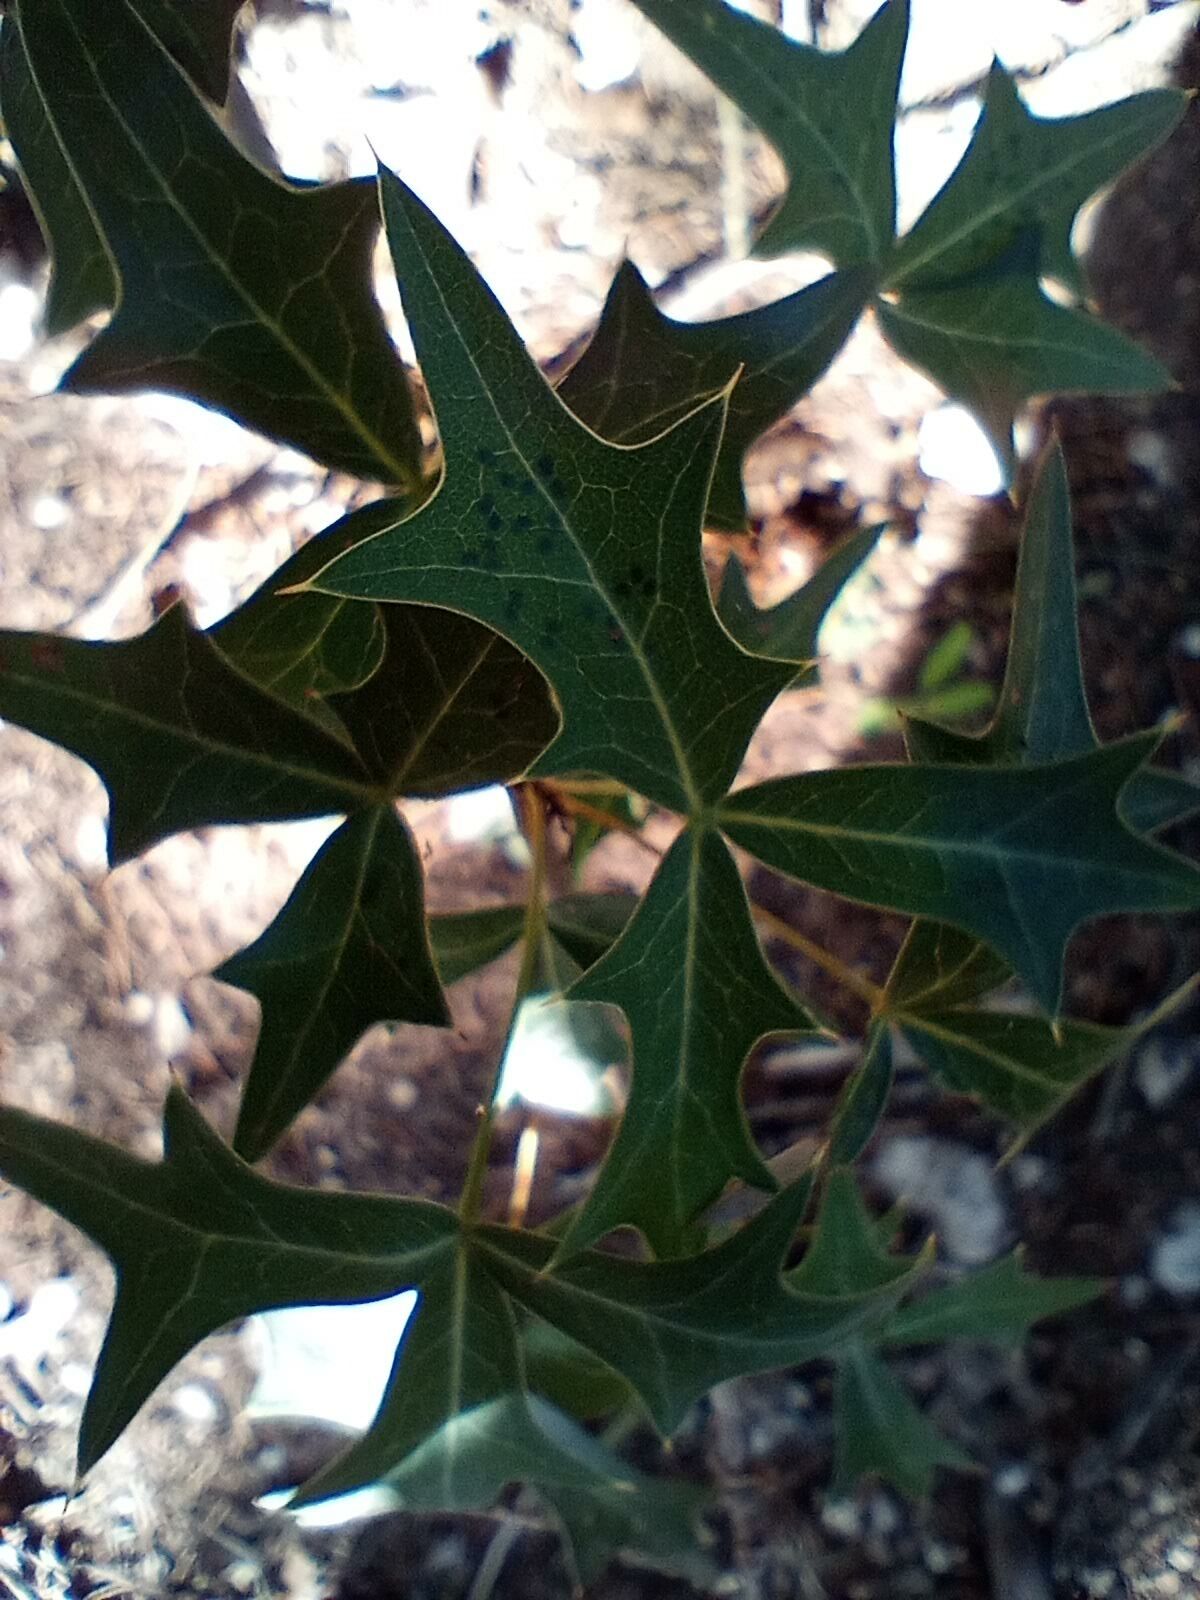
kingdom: Plantae
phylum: Tracheophyta
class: Magnoliopsida
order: Ranunculales
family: Berberidaceae
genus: Alloberberis
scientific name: Alloberberis trifoliolata
